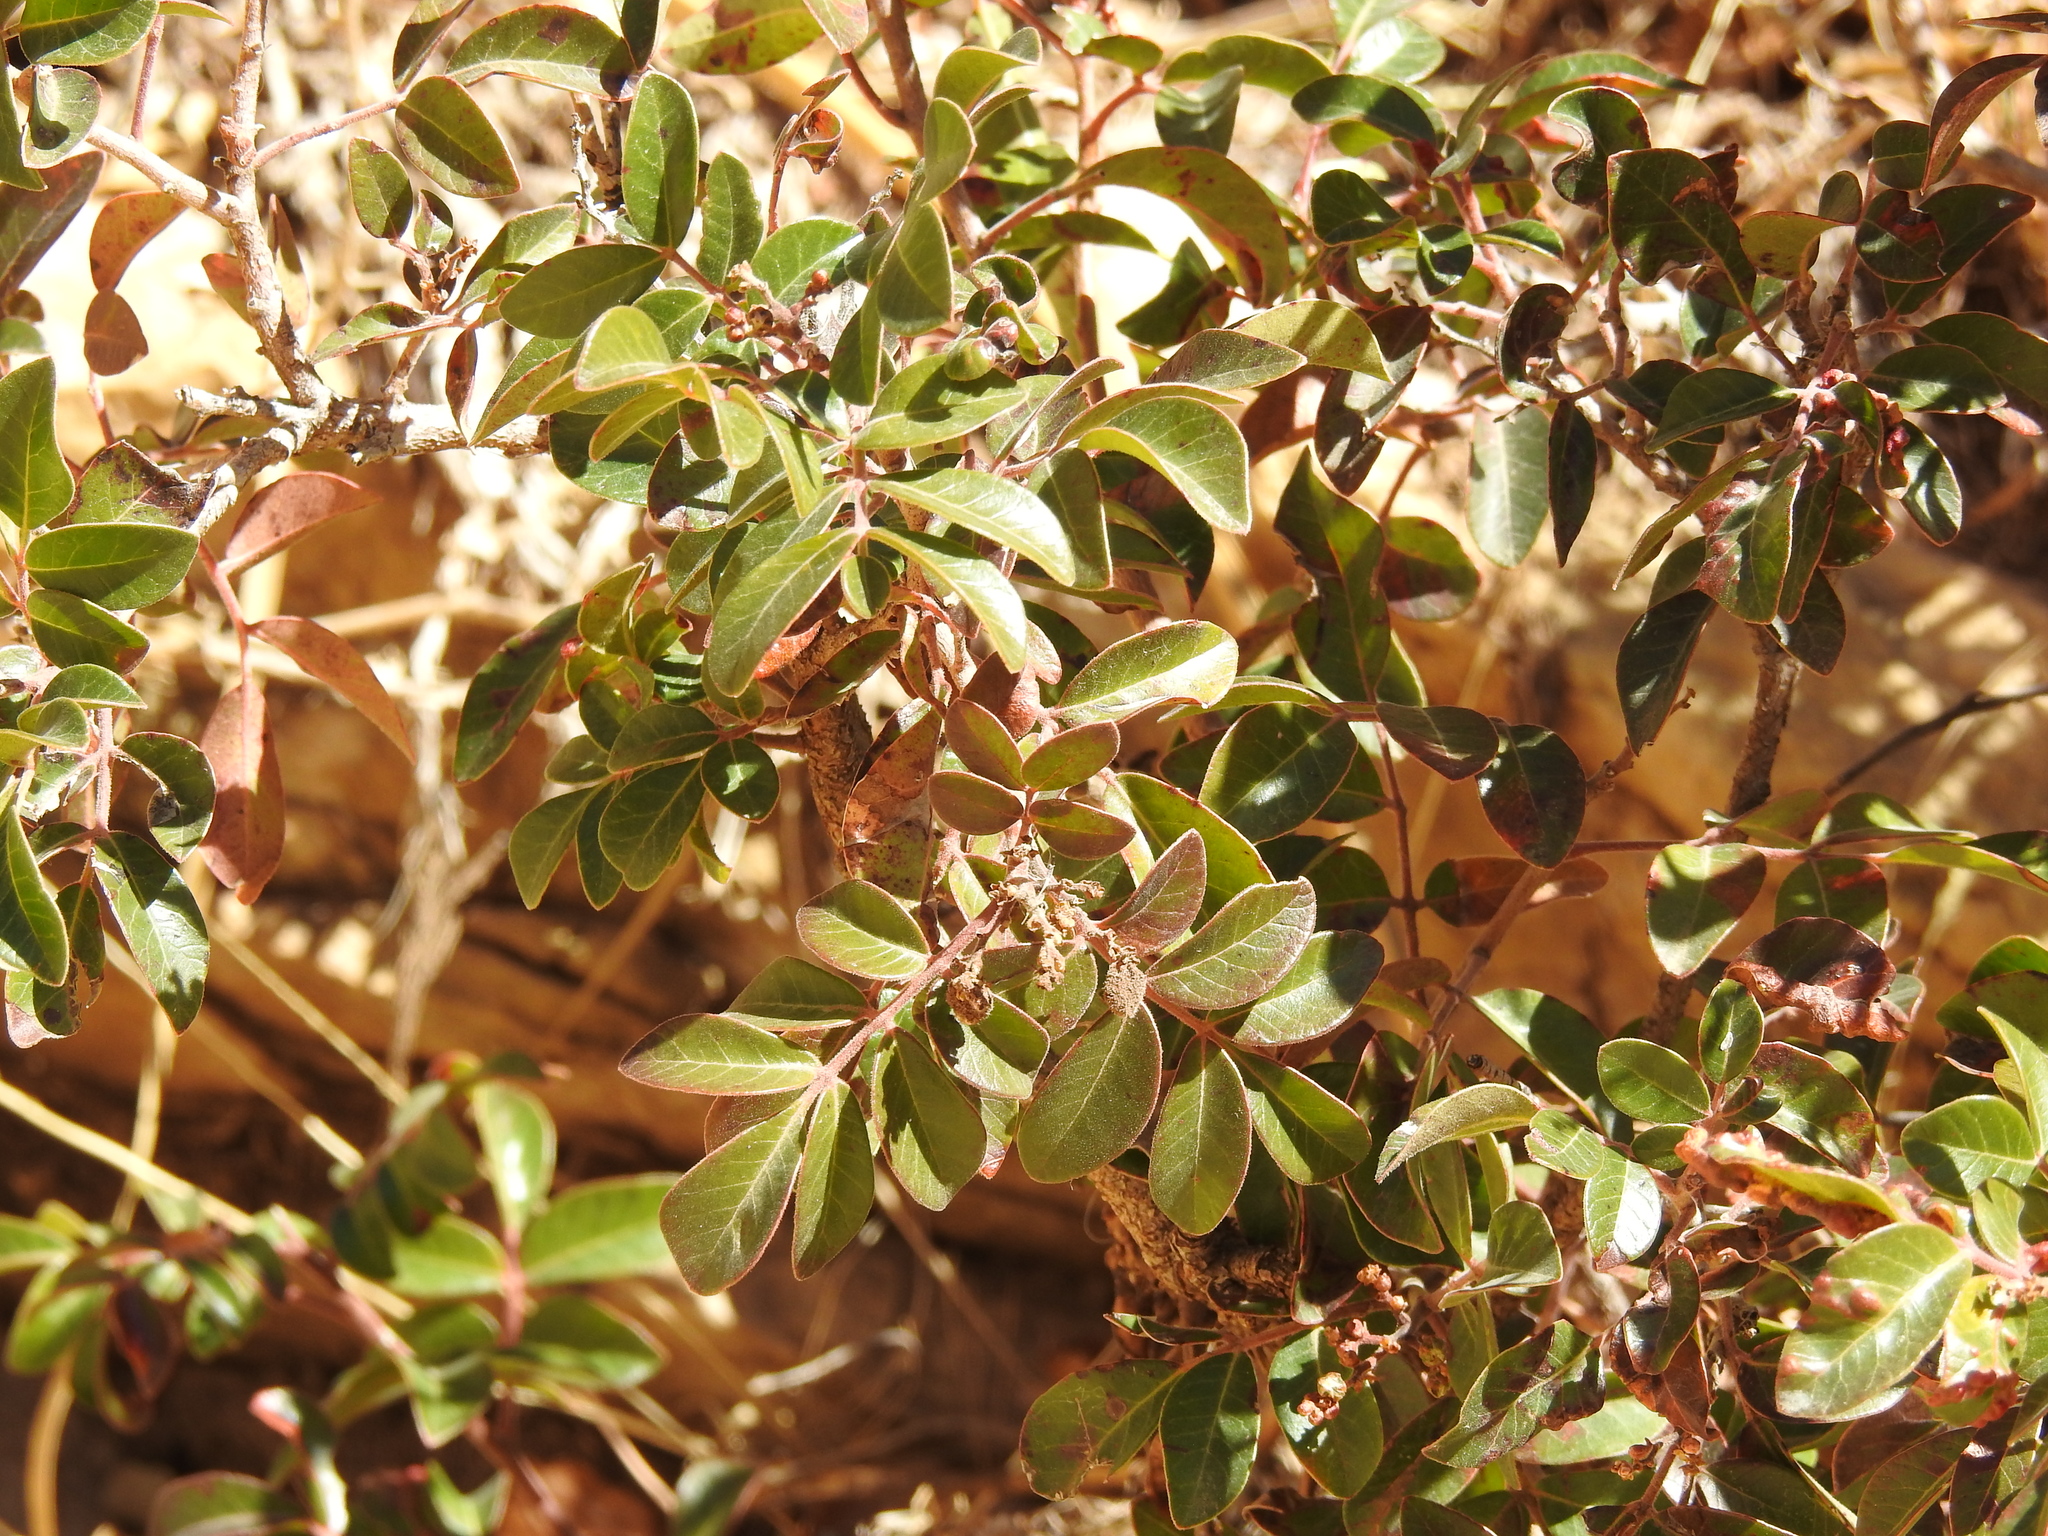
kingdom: Plantae
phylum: Tracheophyta
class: Magnoliopsida
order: Sapindales
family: Anacardiaceae
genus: Rhus
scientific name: Rhus virens
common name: Evergreen sumac
